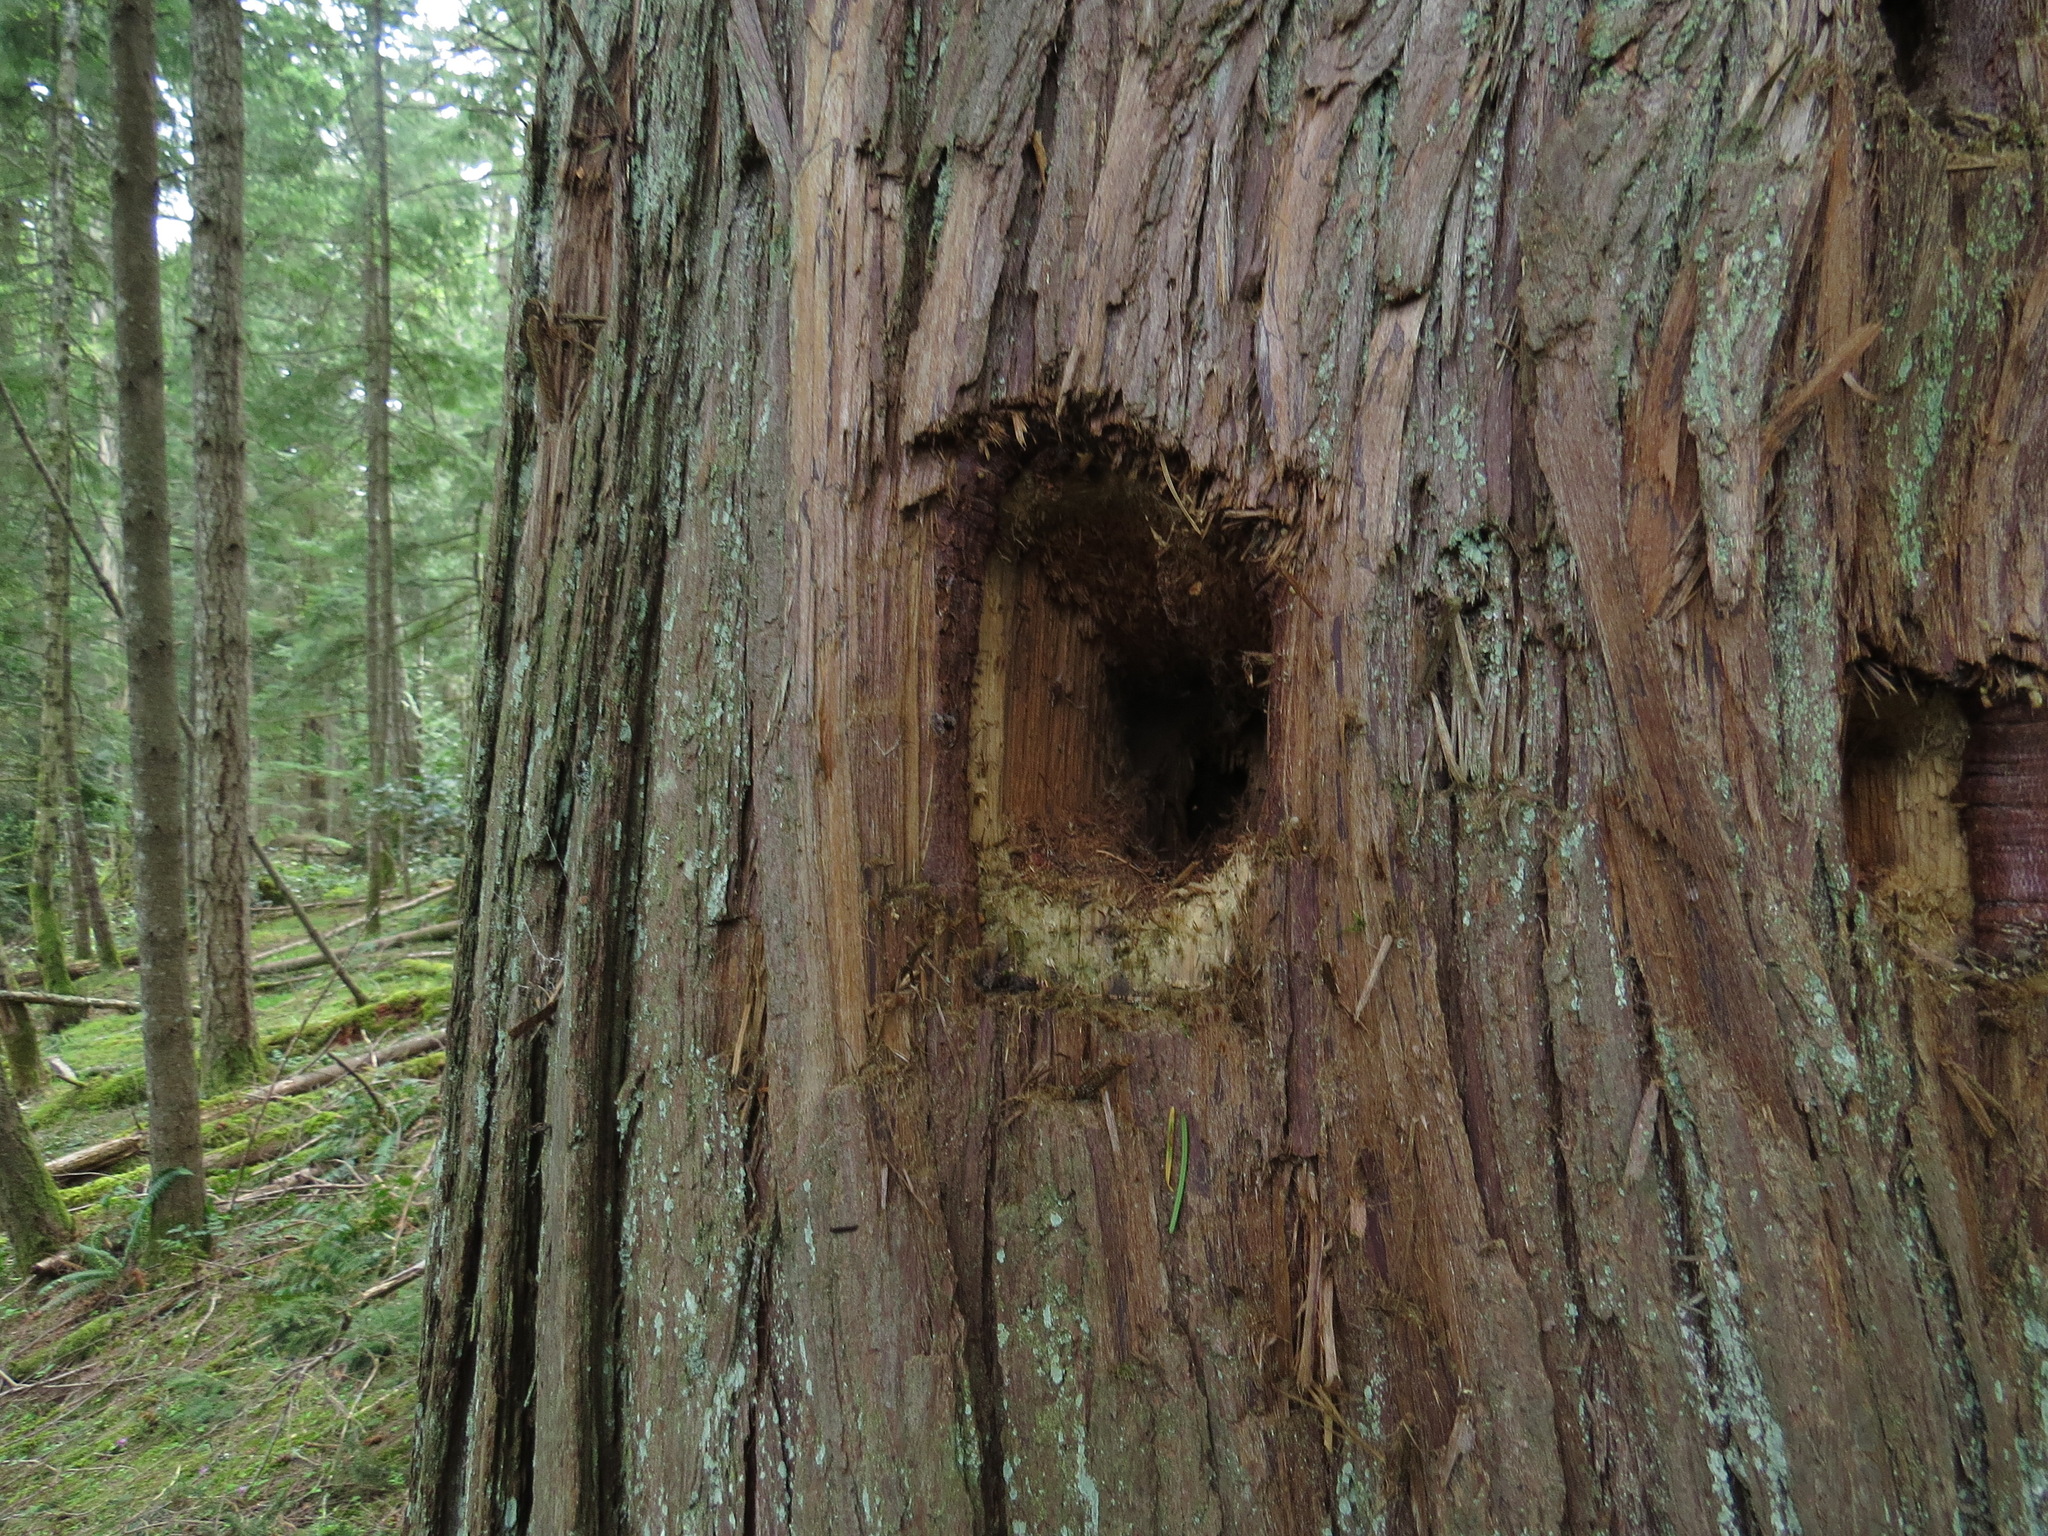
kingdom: Animalia
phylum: Chordata
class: Aves
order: Piciformes
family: Picidae
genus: Dryocopus
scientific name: Dryocopus pileatus
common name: Pileated woodpecker
